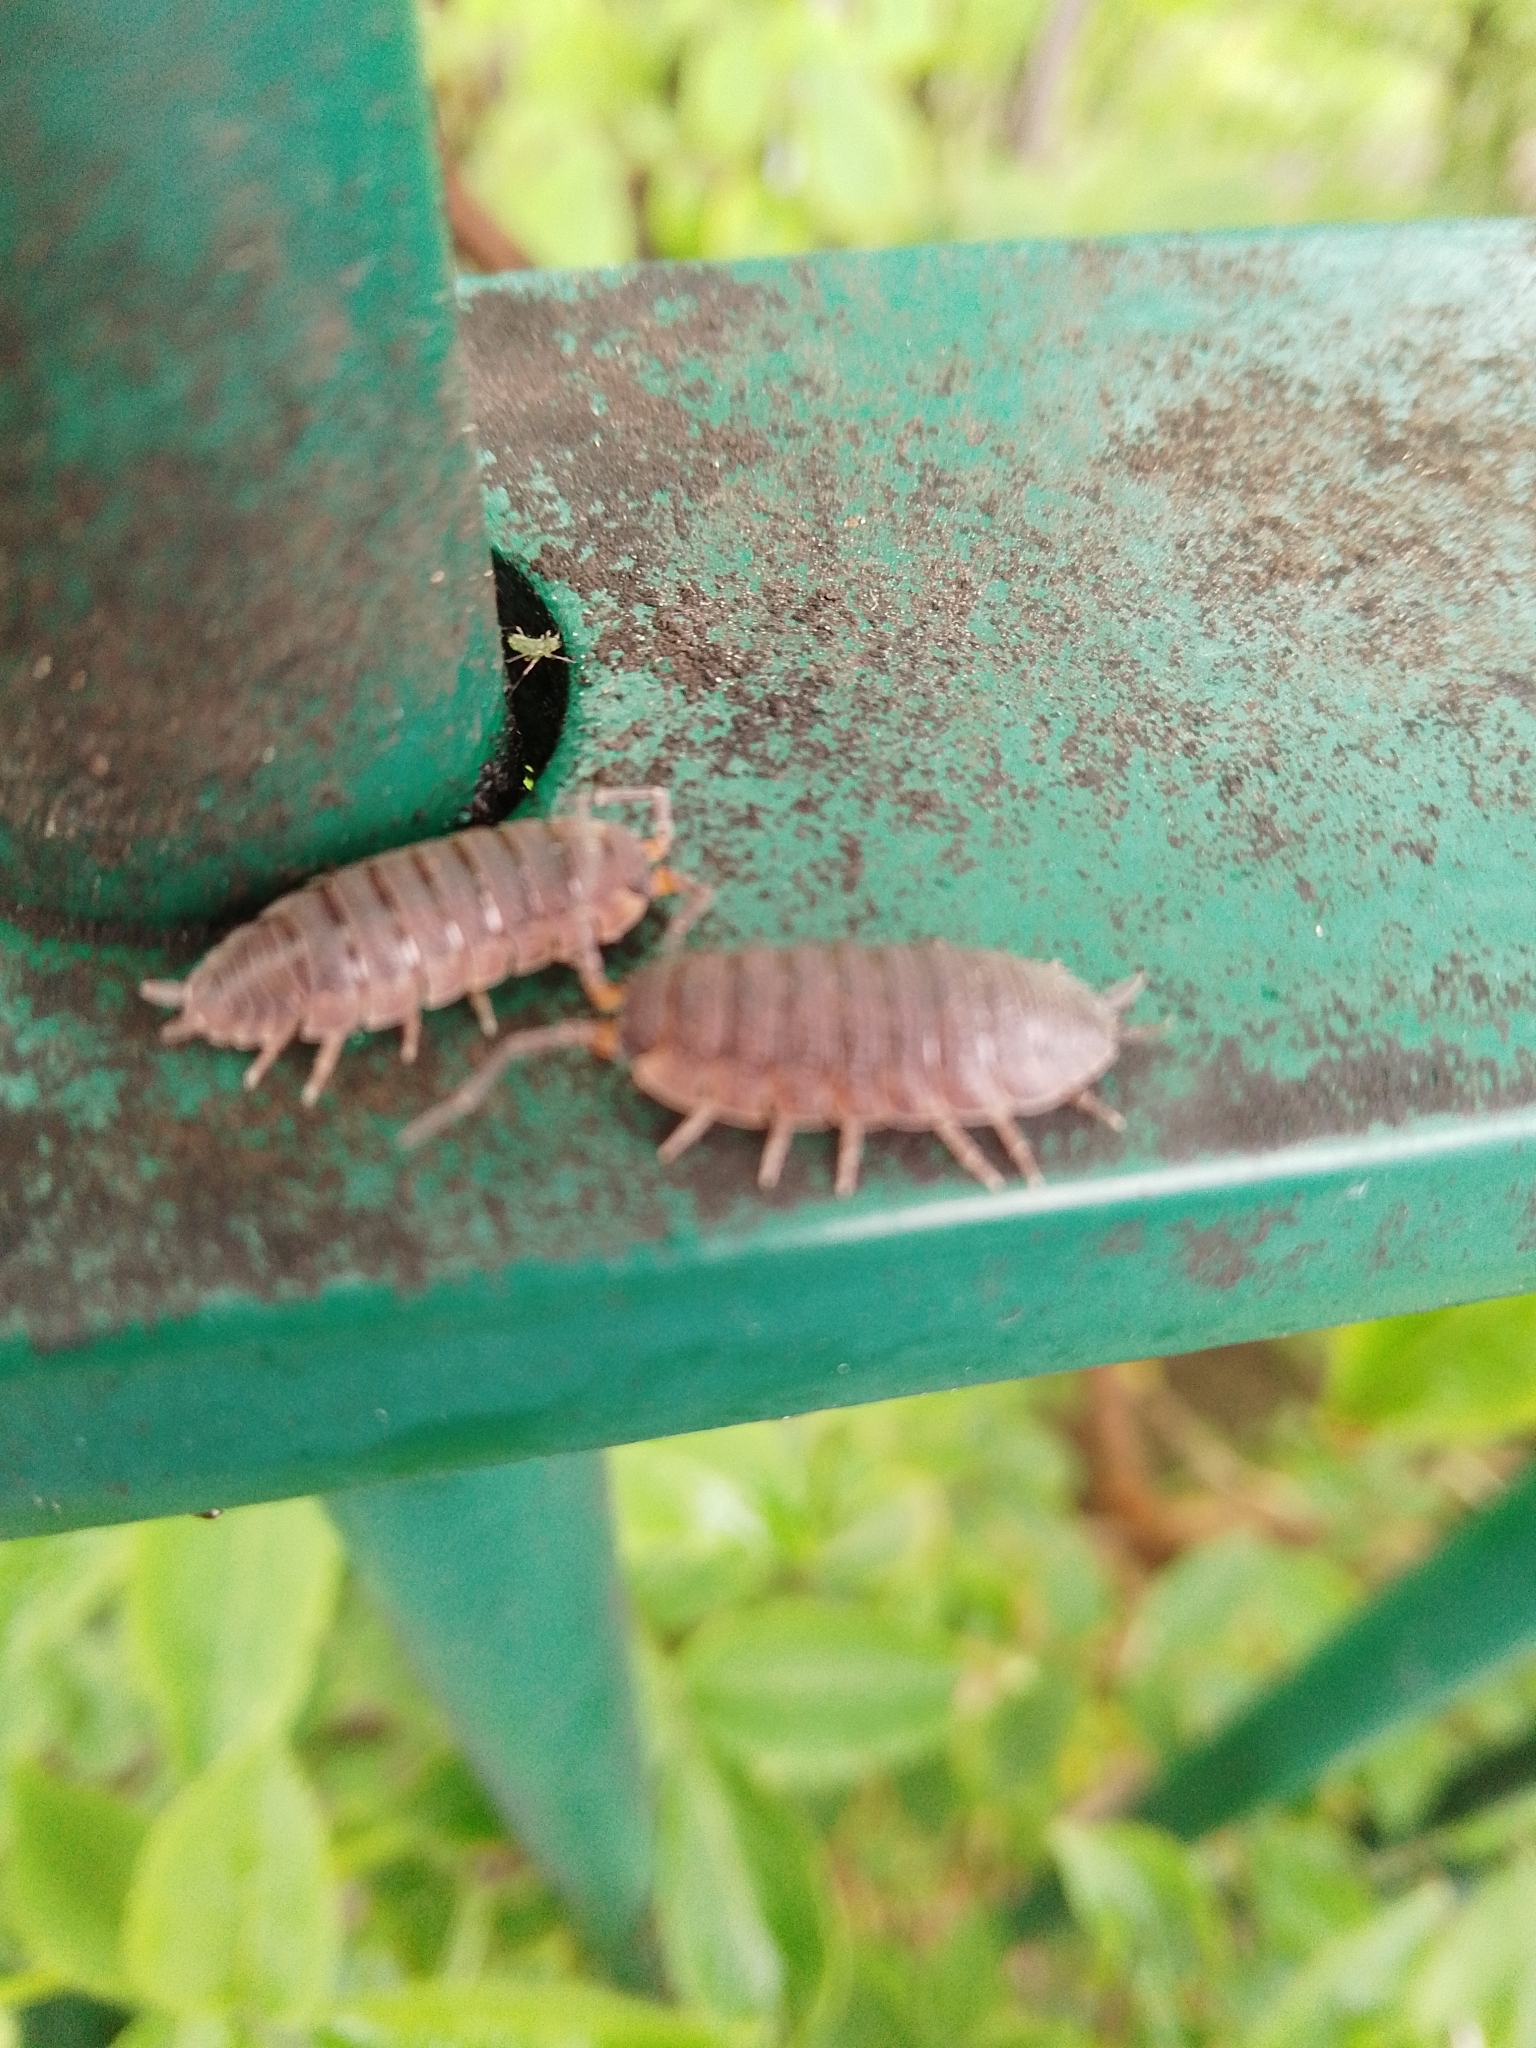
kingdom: Animalia
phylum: Arthropoda
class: Malacostraca
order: Isopoda
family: Porcellionidae
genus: Porcellio
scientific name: Porcellio scaber
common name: Common rough woodlouse
